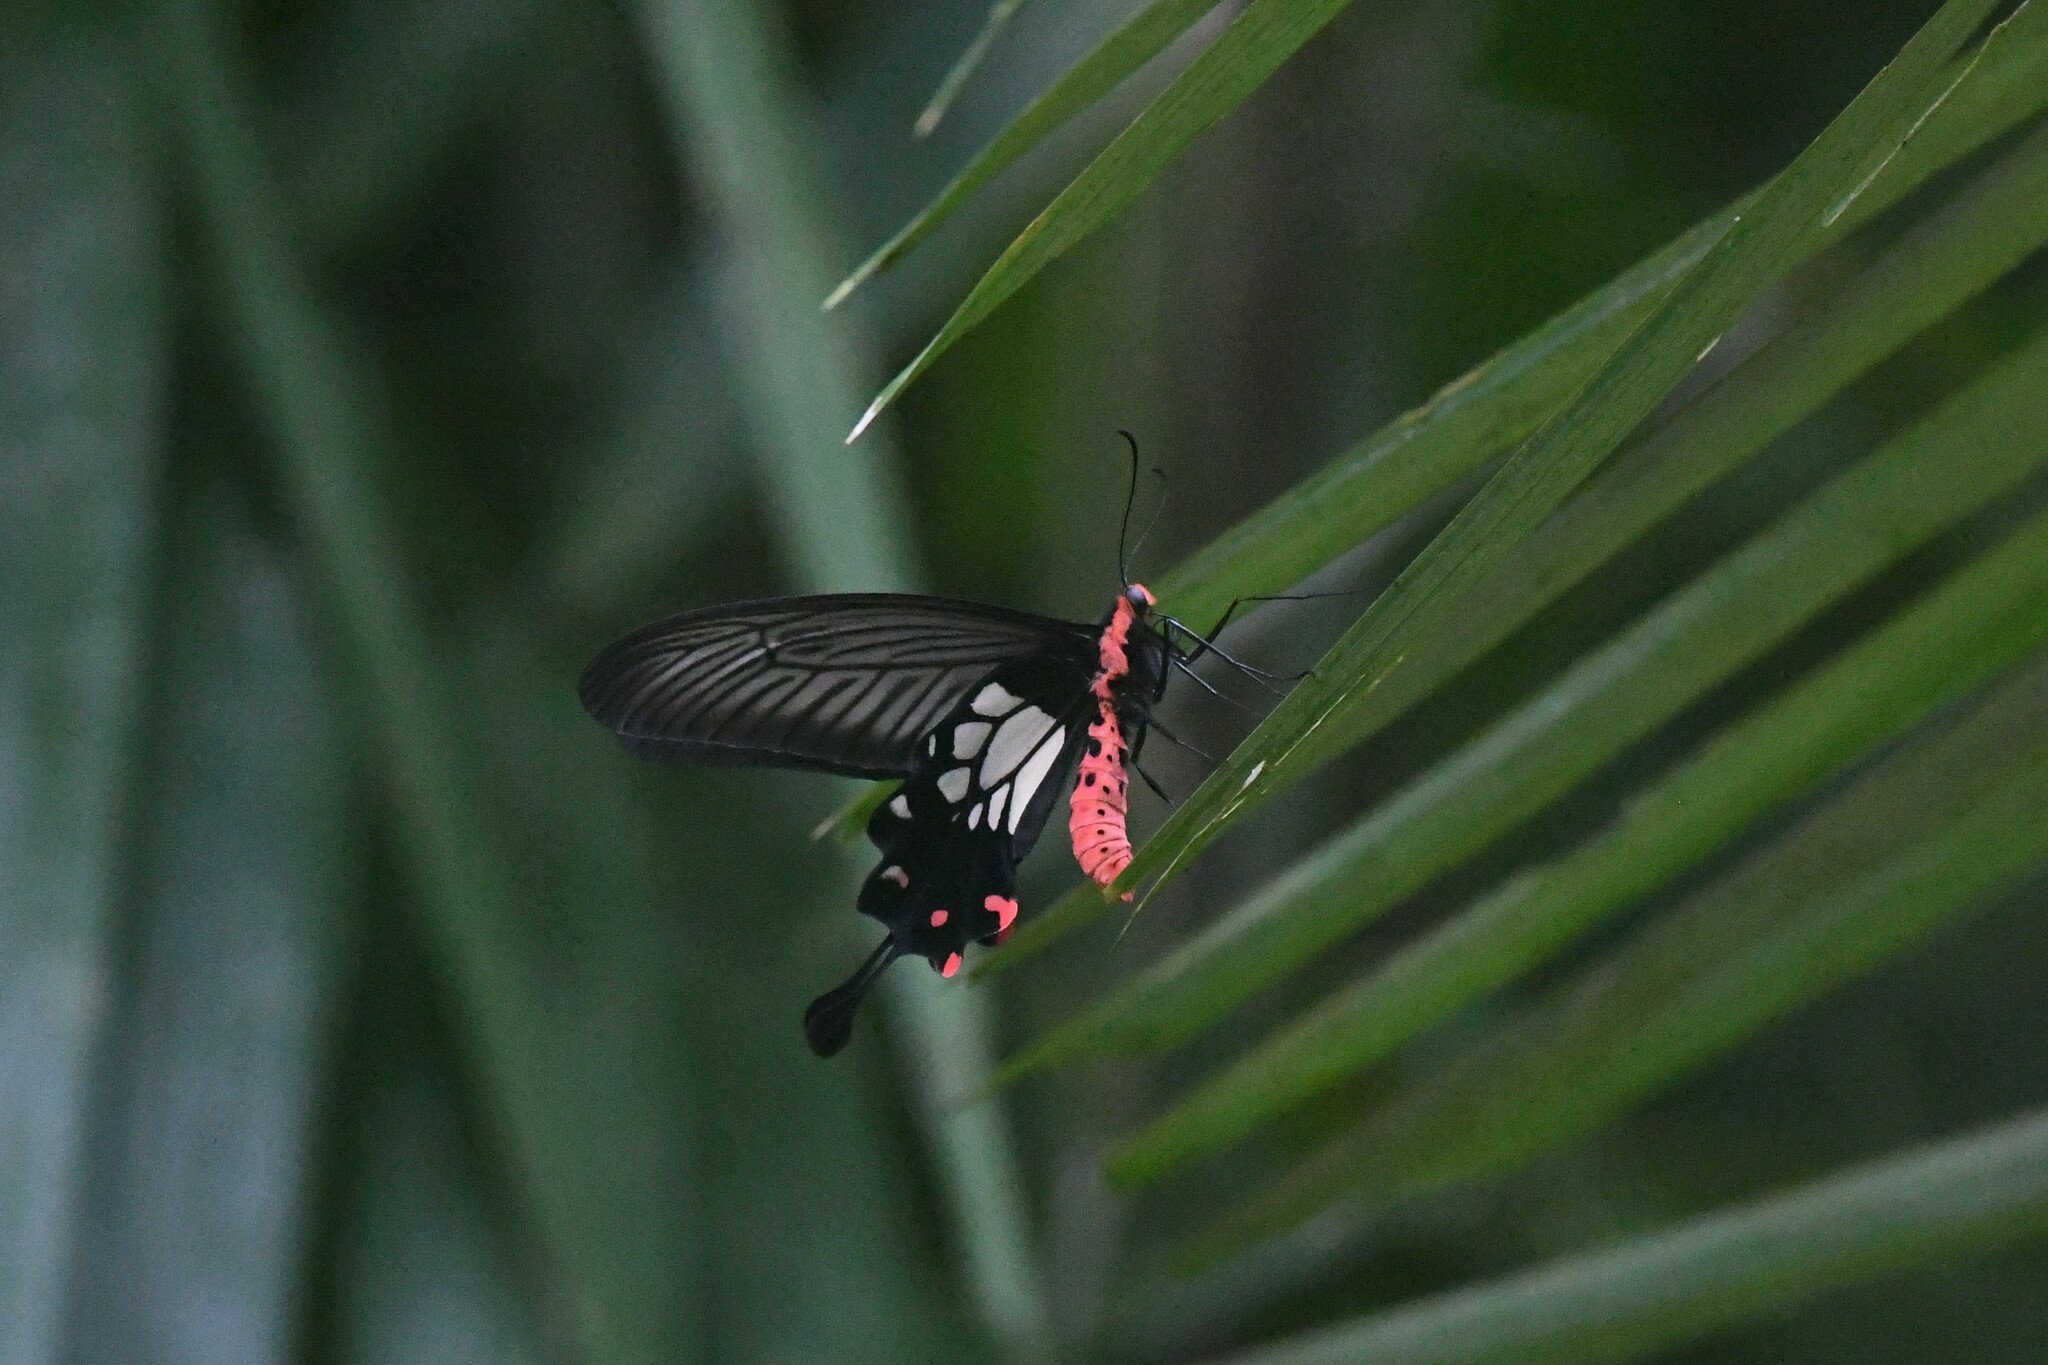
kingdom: Animalia
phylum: Arthropoda
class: Insecta
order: Lepidoptera
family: Papilionidae
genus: Losaria
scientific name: Losaria
